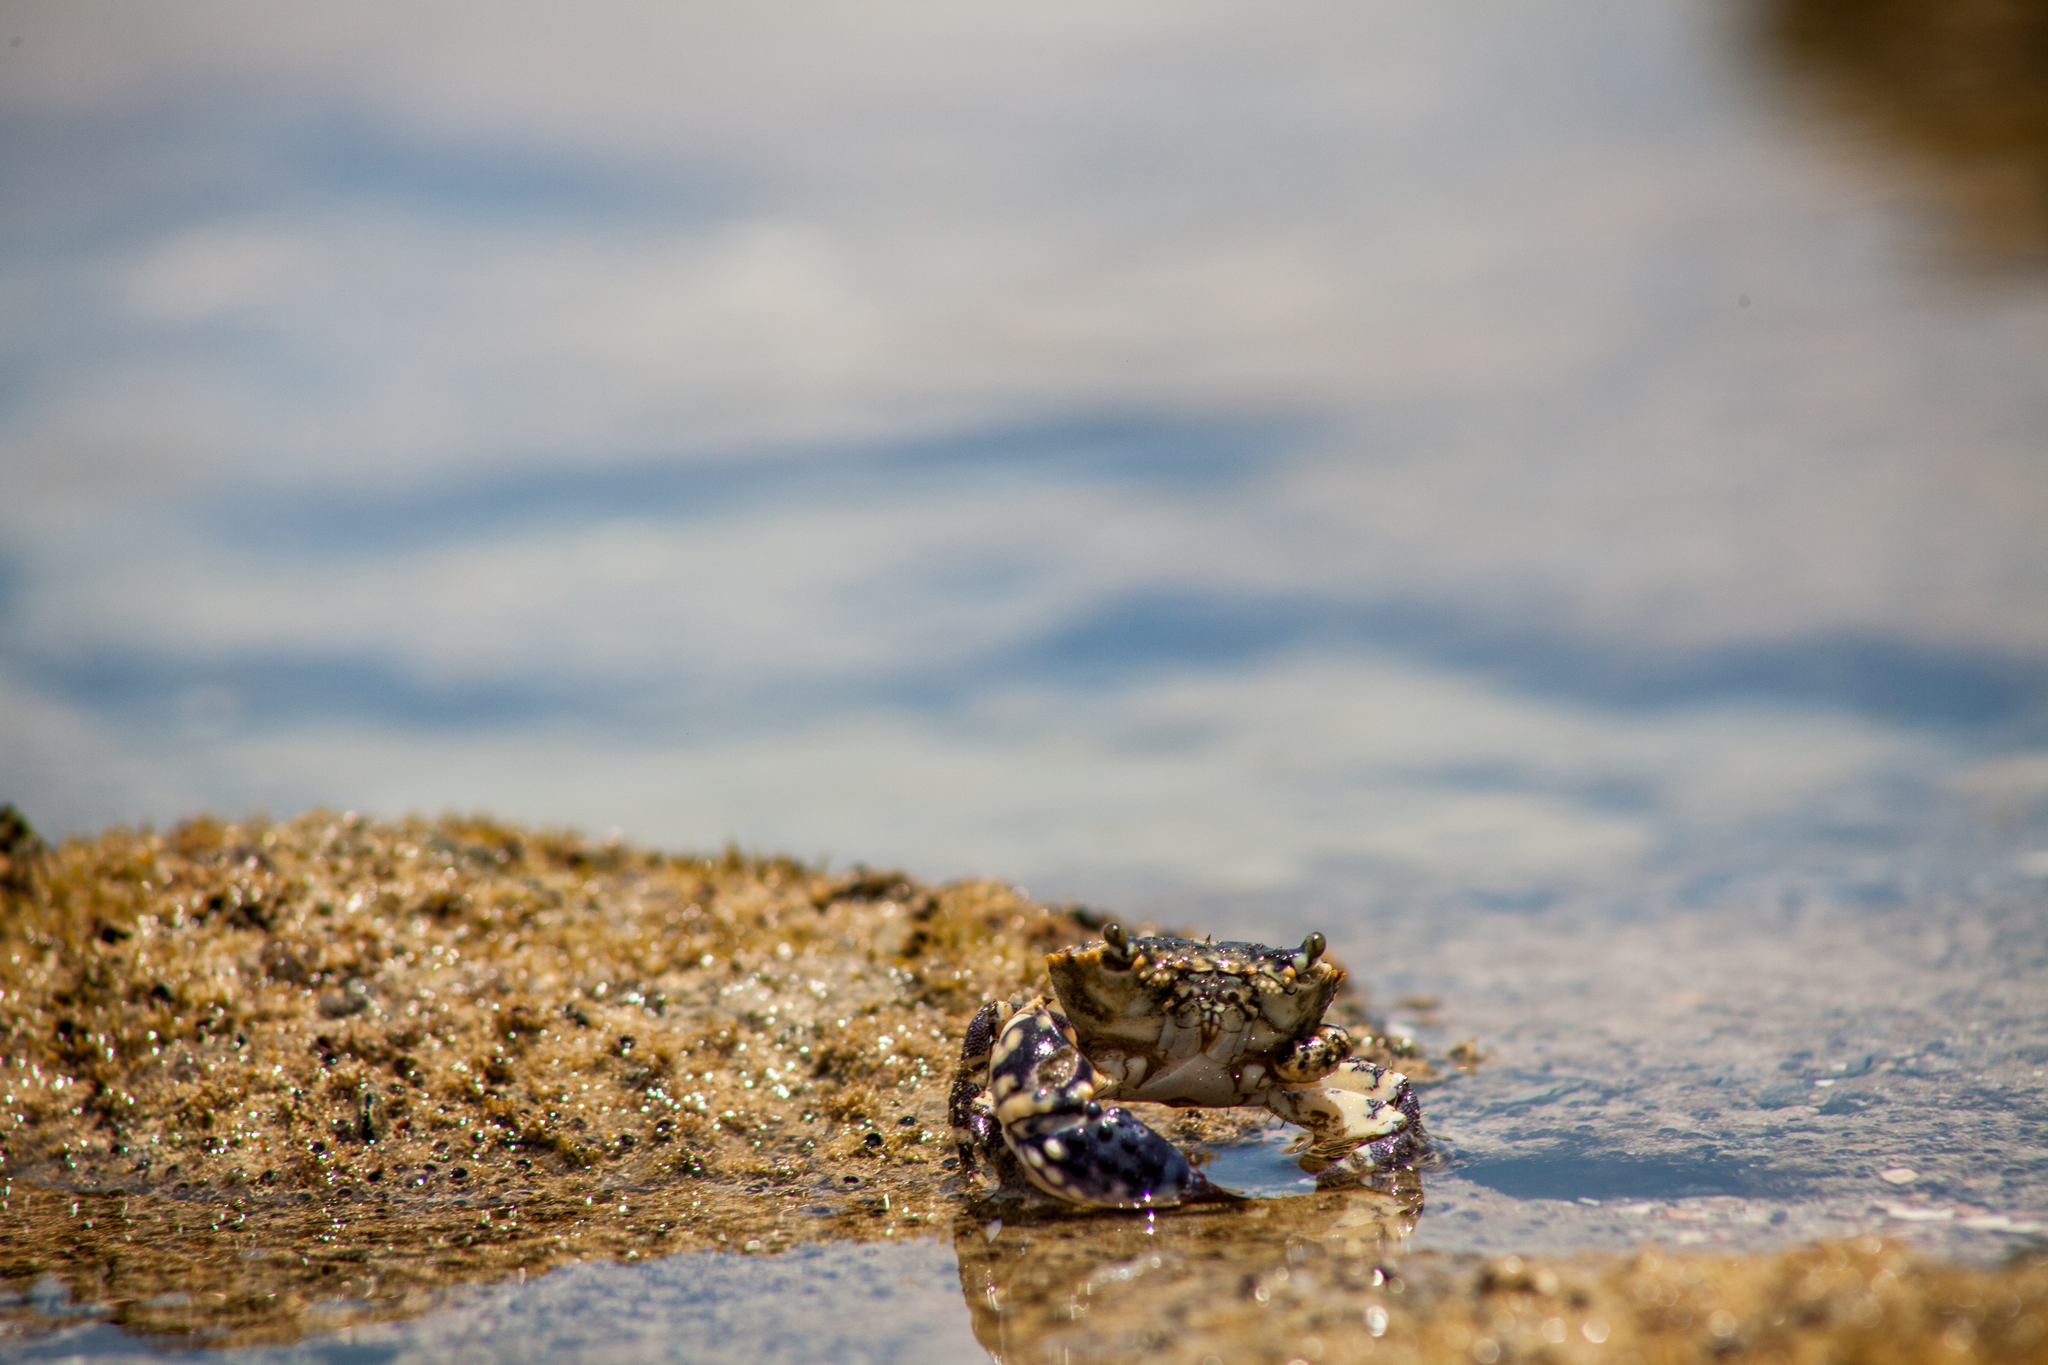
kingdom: Animalia
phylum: Arthropoda
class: Malacostraca
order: Decapoda
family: Eriphiidae
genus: Eriphia
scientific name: Eriphia gonagra
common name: Calico crab
